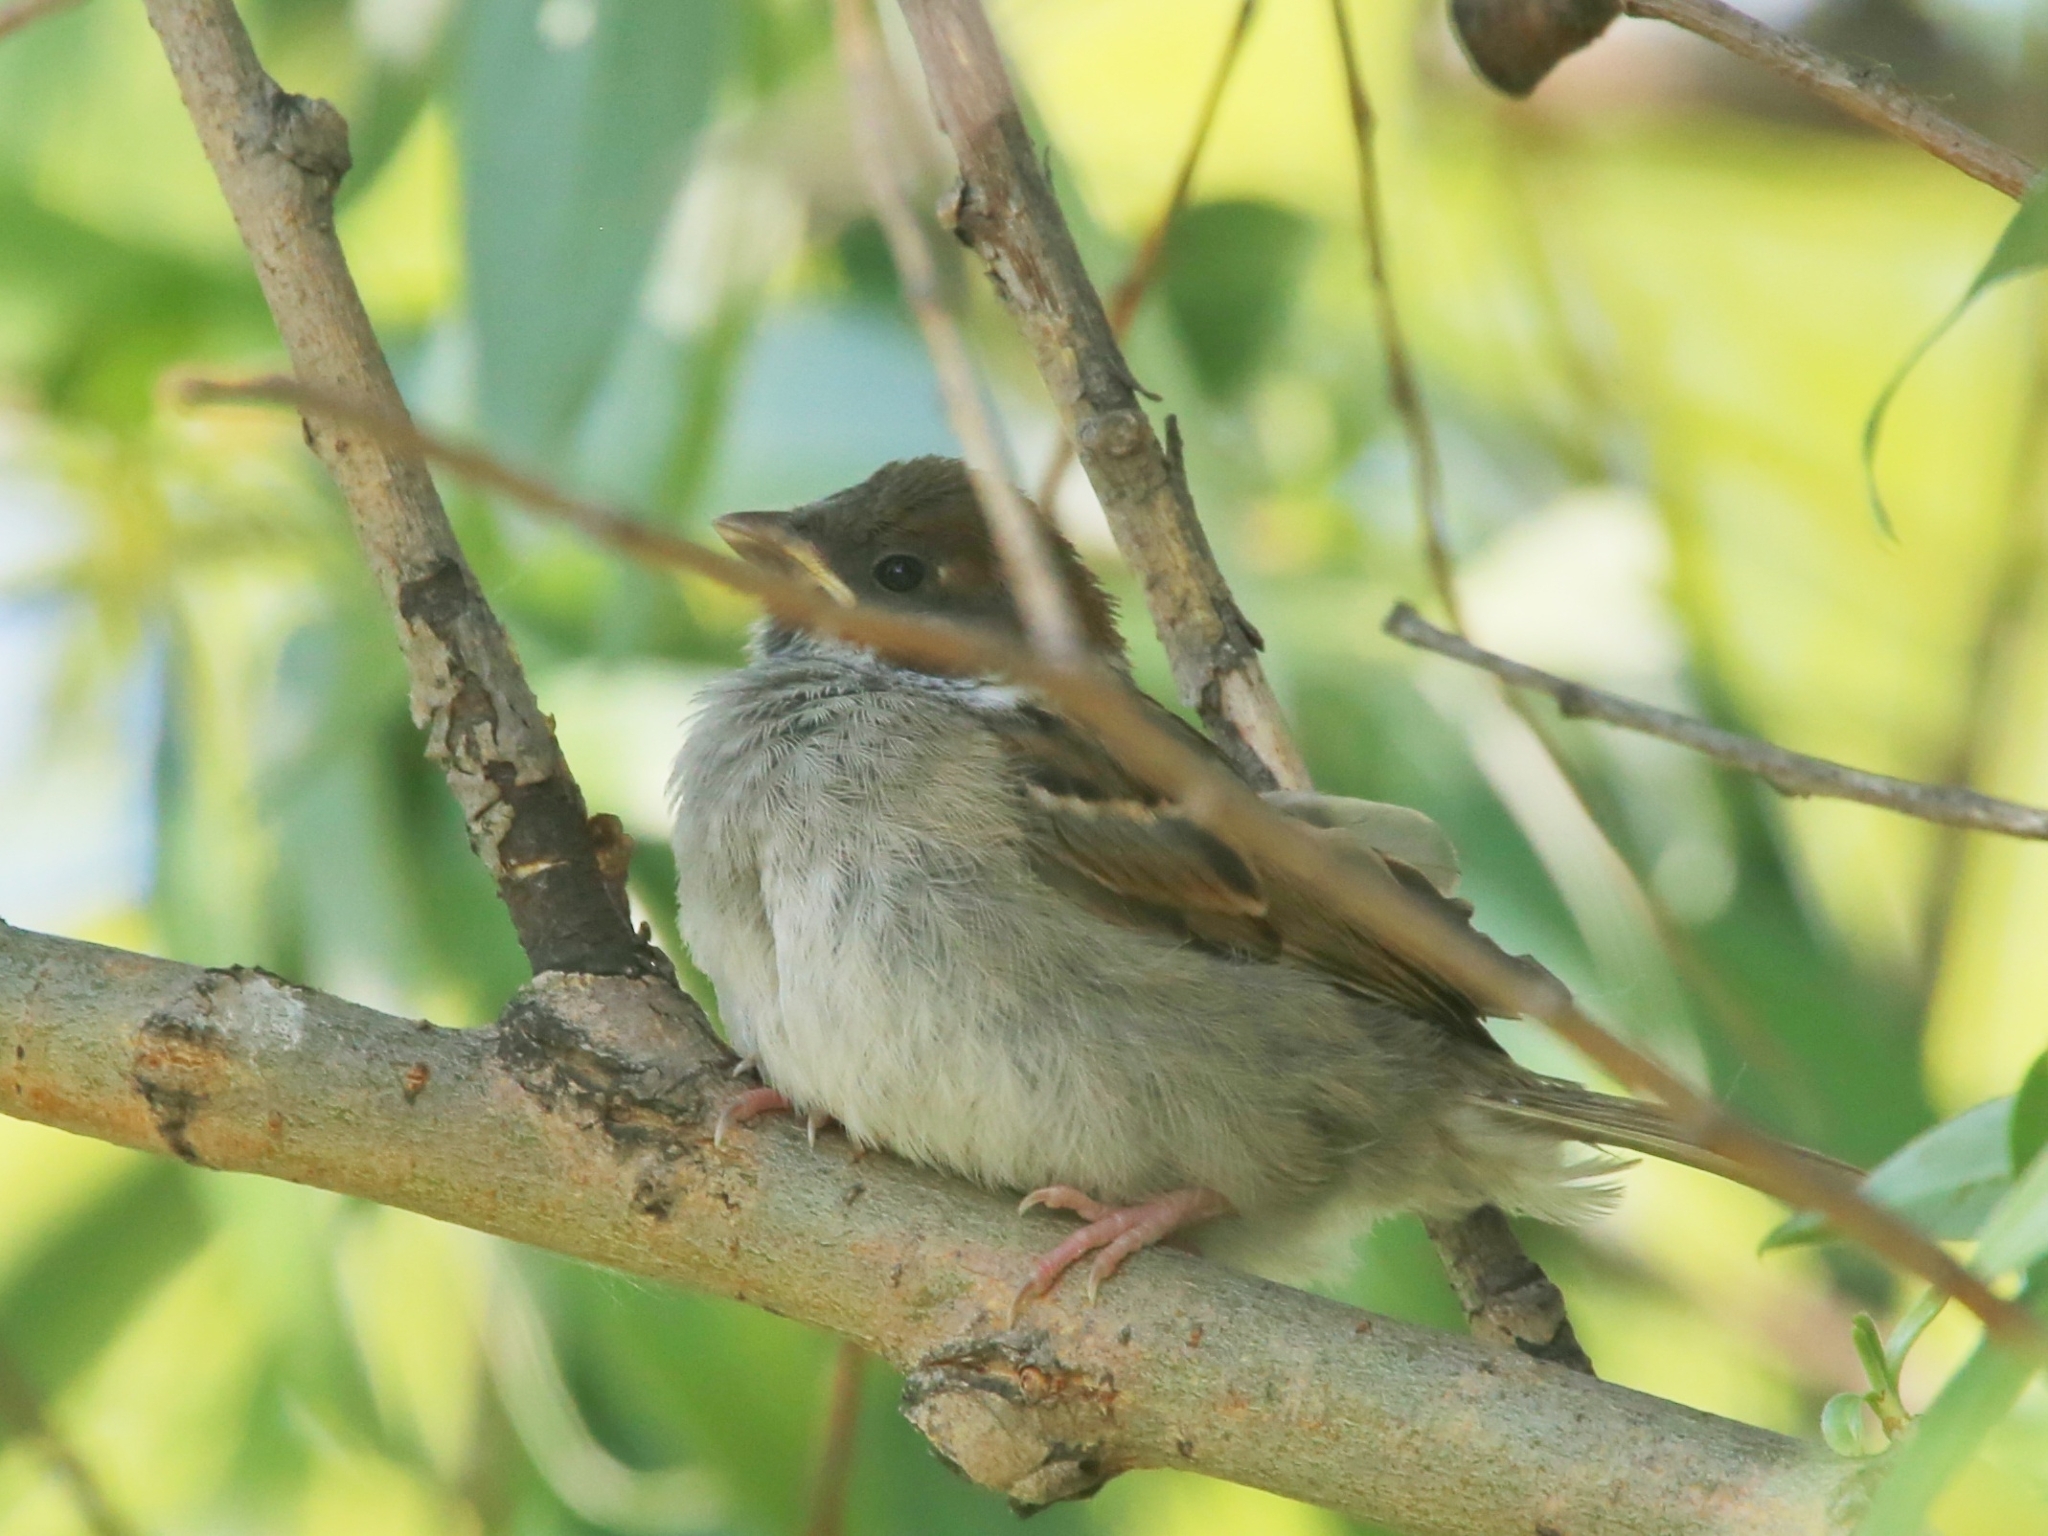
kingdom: Animalia
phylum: Chordata
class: Aves
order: Passeriformes
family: Passeridae
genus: Passer
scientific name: Passer montanus
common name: Eurasian tree sparrow
